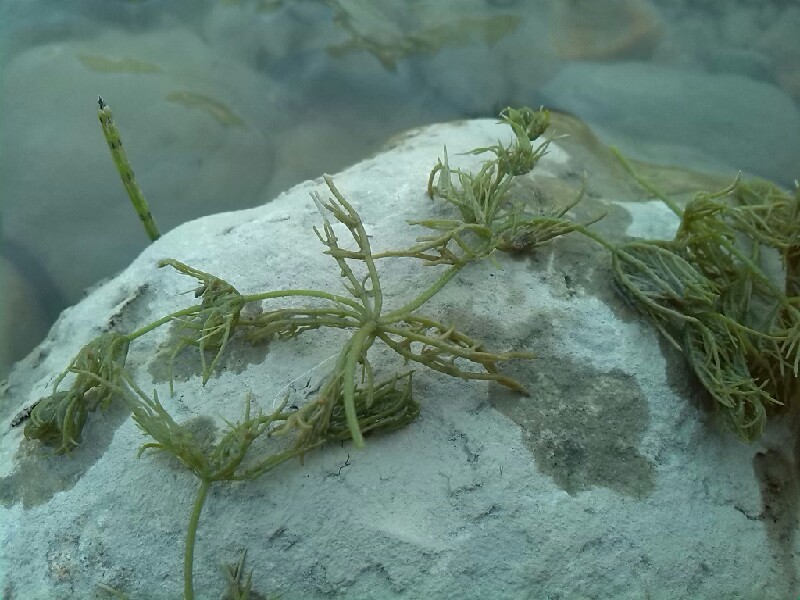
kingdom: Plantae
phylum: Charophyta
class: Charophyceae
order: Charales
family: Characeae
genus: Chara
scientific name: Chara vulgaris
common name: Common stonewort
